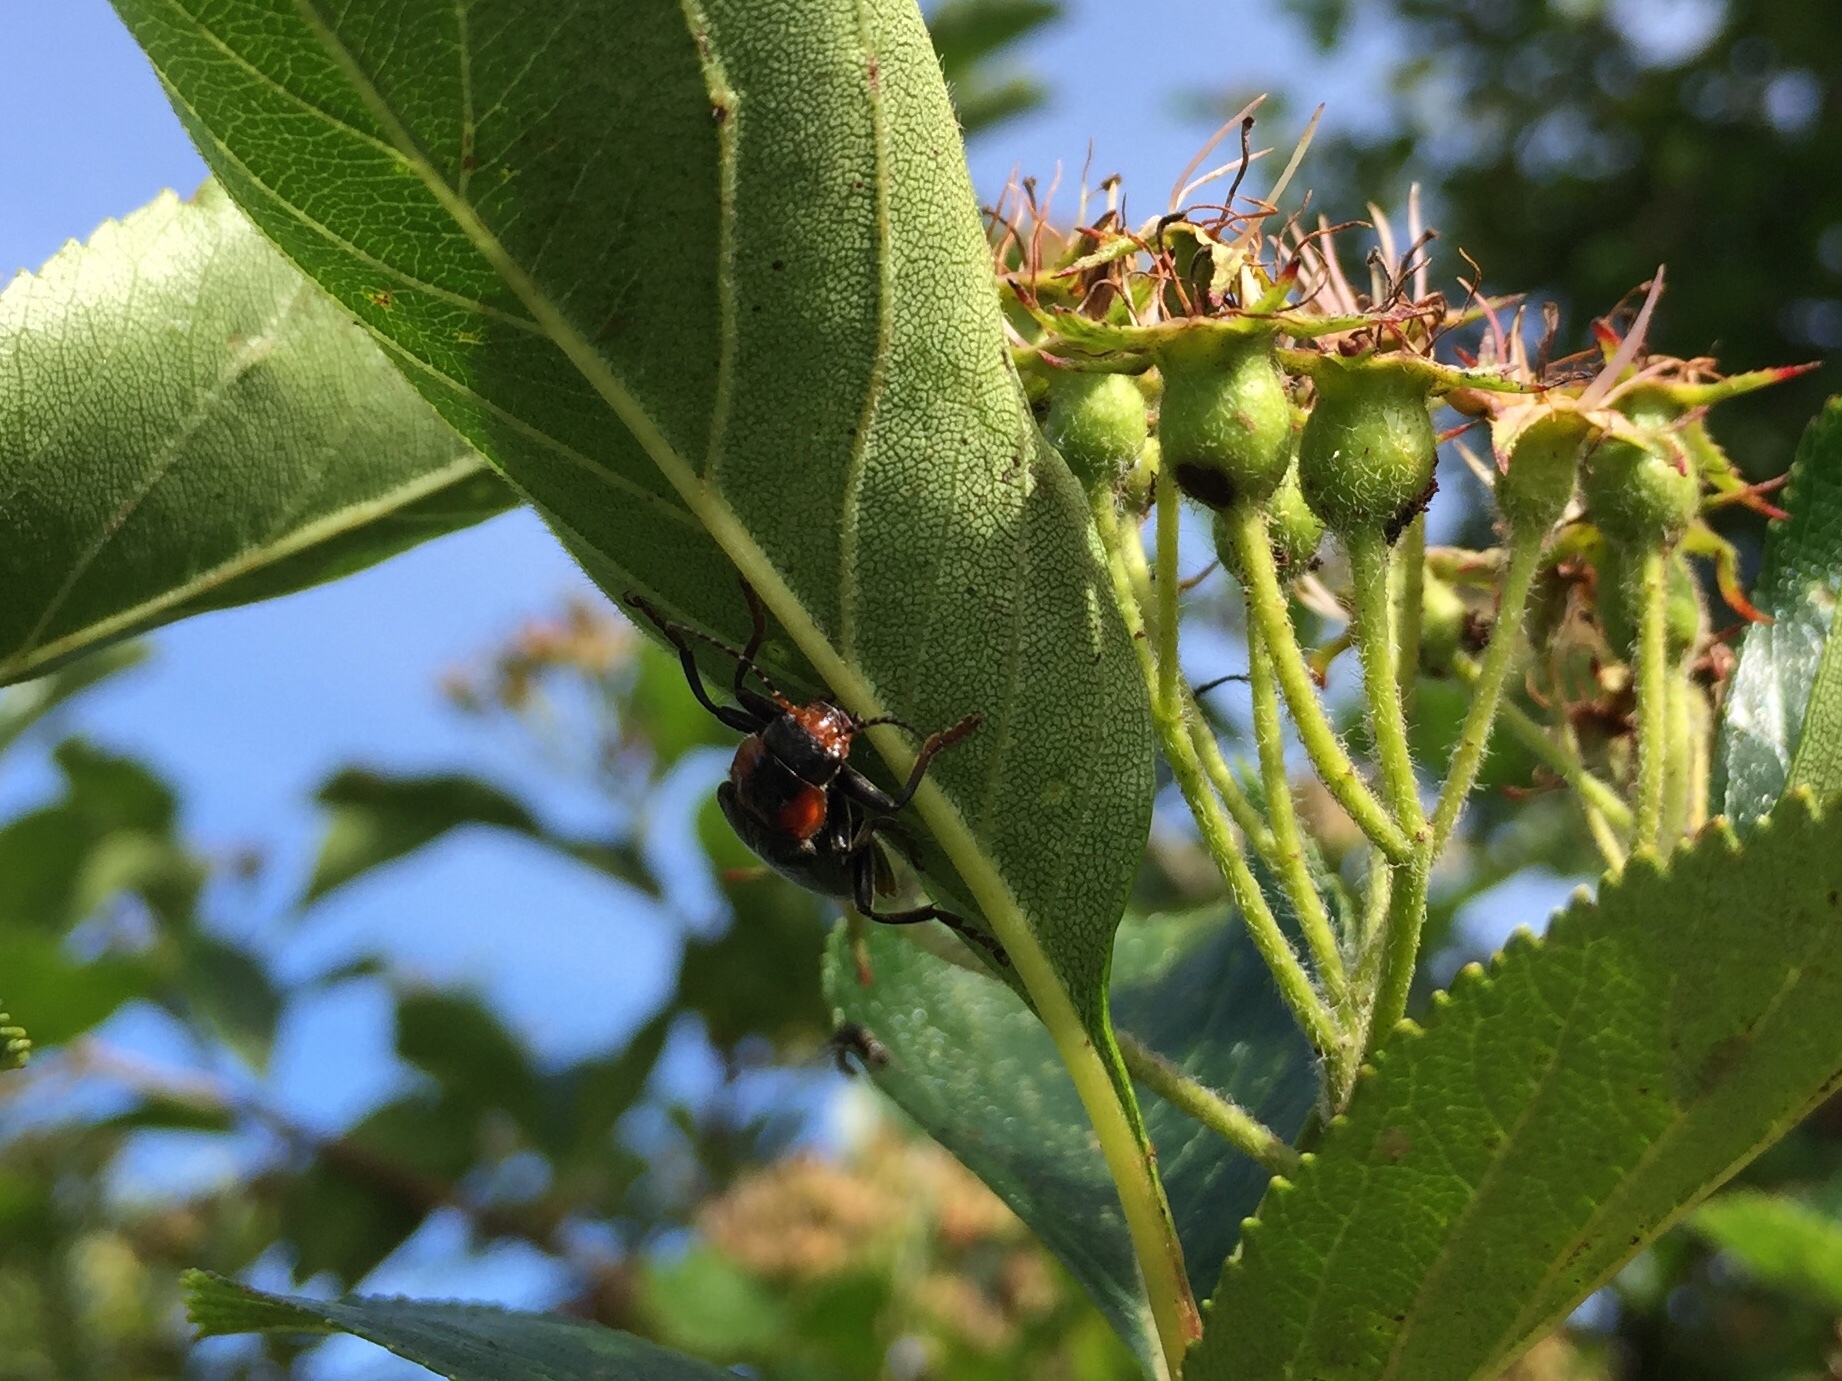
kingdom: Animalia
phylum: Arthropoda
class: Insecta
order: Coleoptera
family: Cantharidae
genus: Cantharis
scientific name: Cantharis fusca
